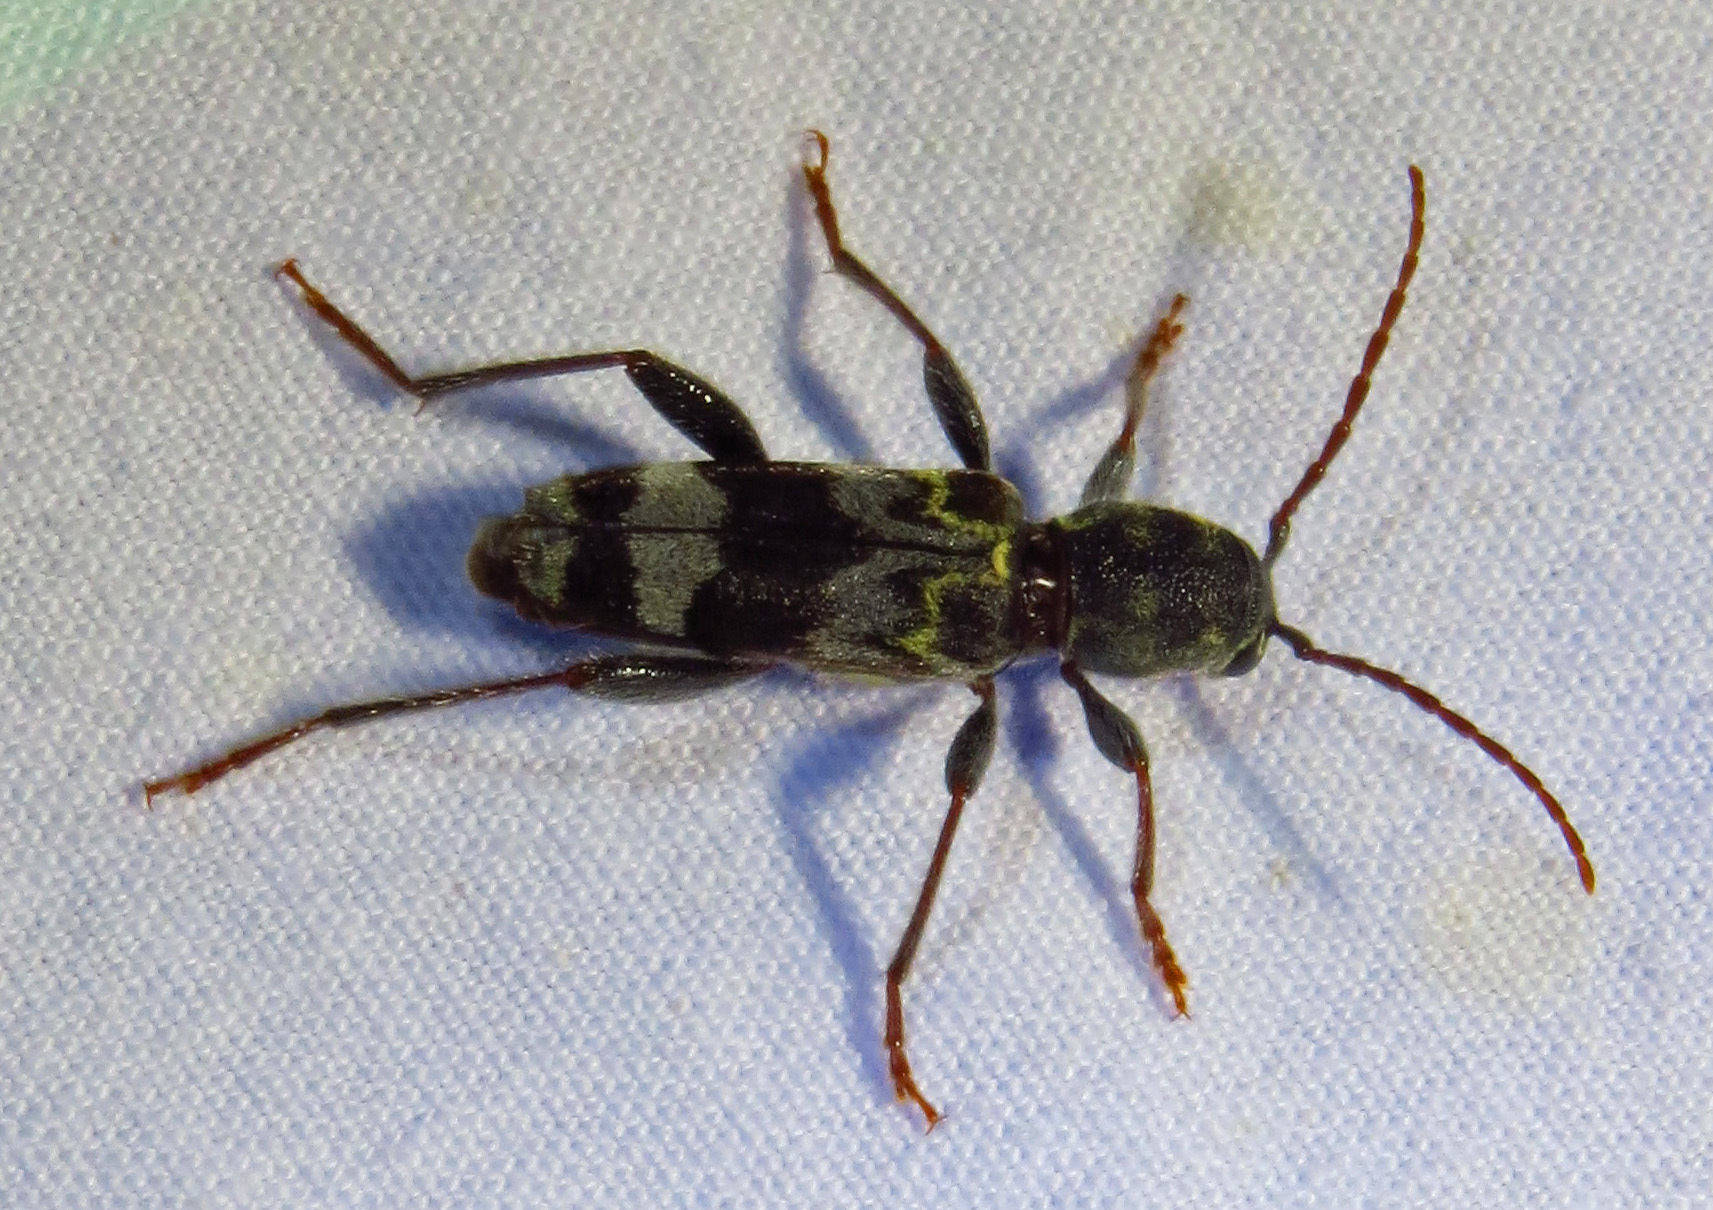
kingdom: Animalia
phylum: Arthropoda
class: Insecta
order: Coleoptera
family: Cerambycidae
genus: Xylotrechus
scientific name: Xylotrechus colonus
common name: Long-horned beetle
